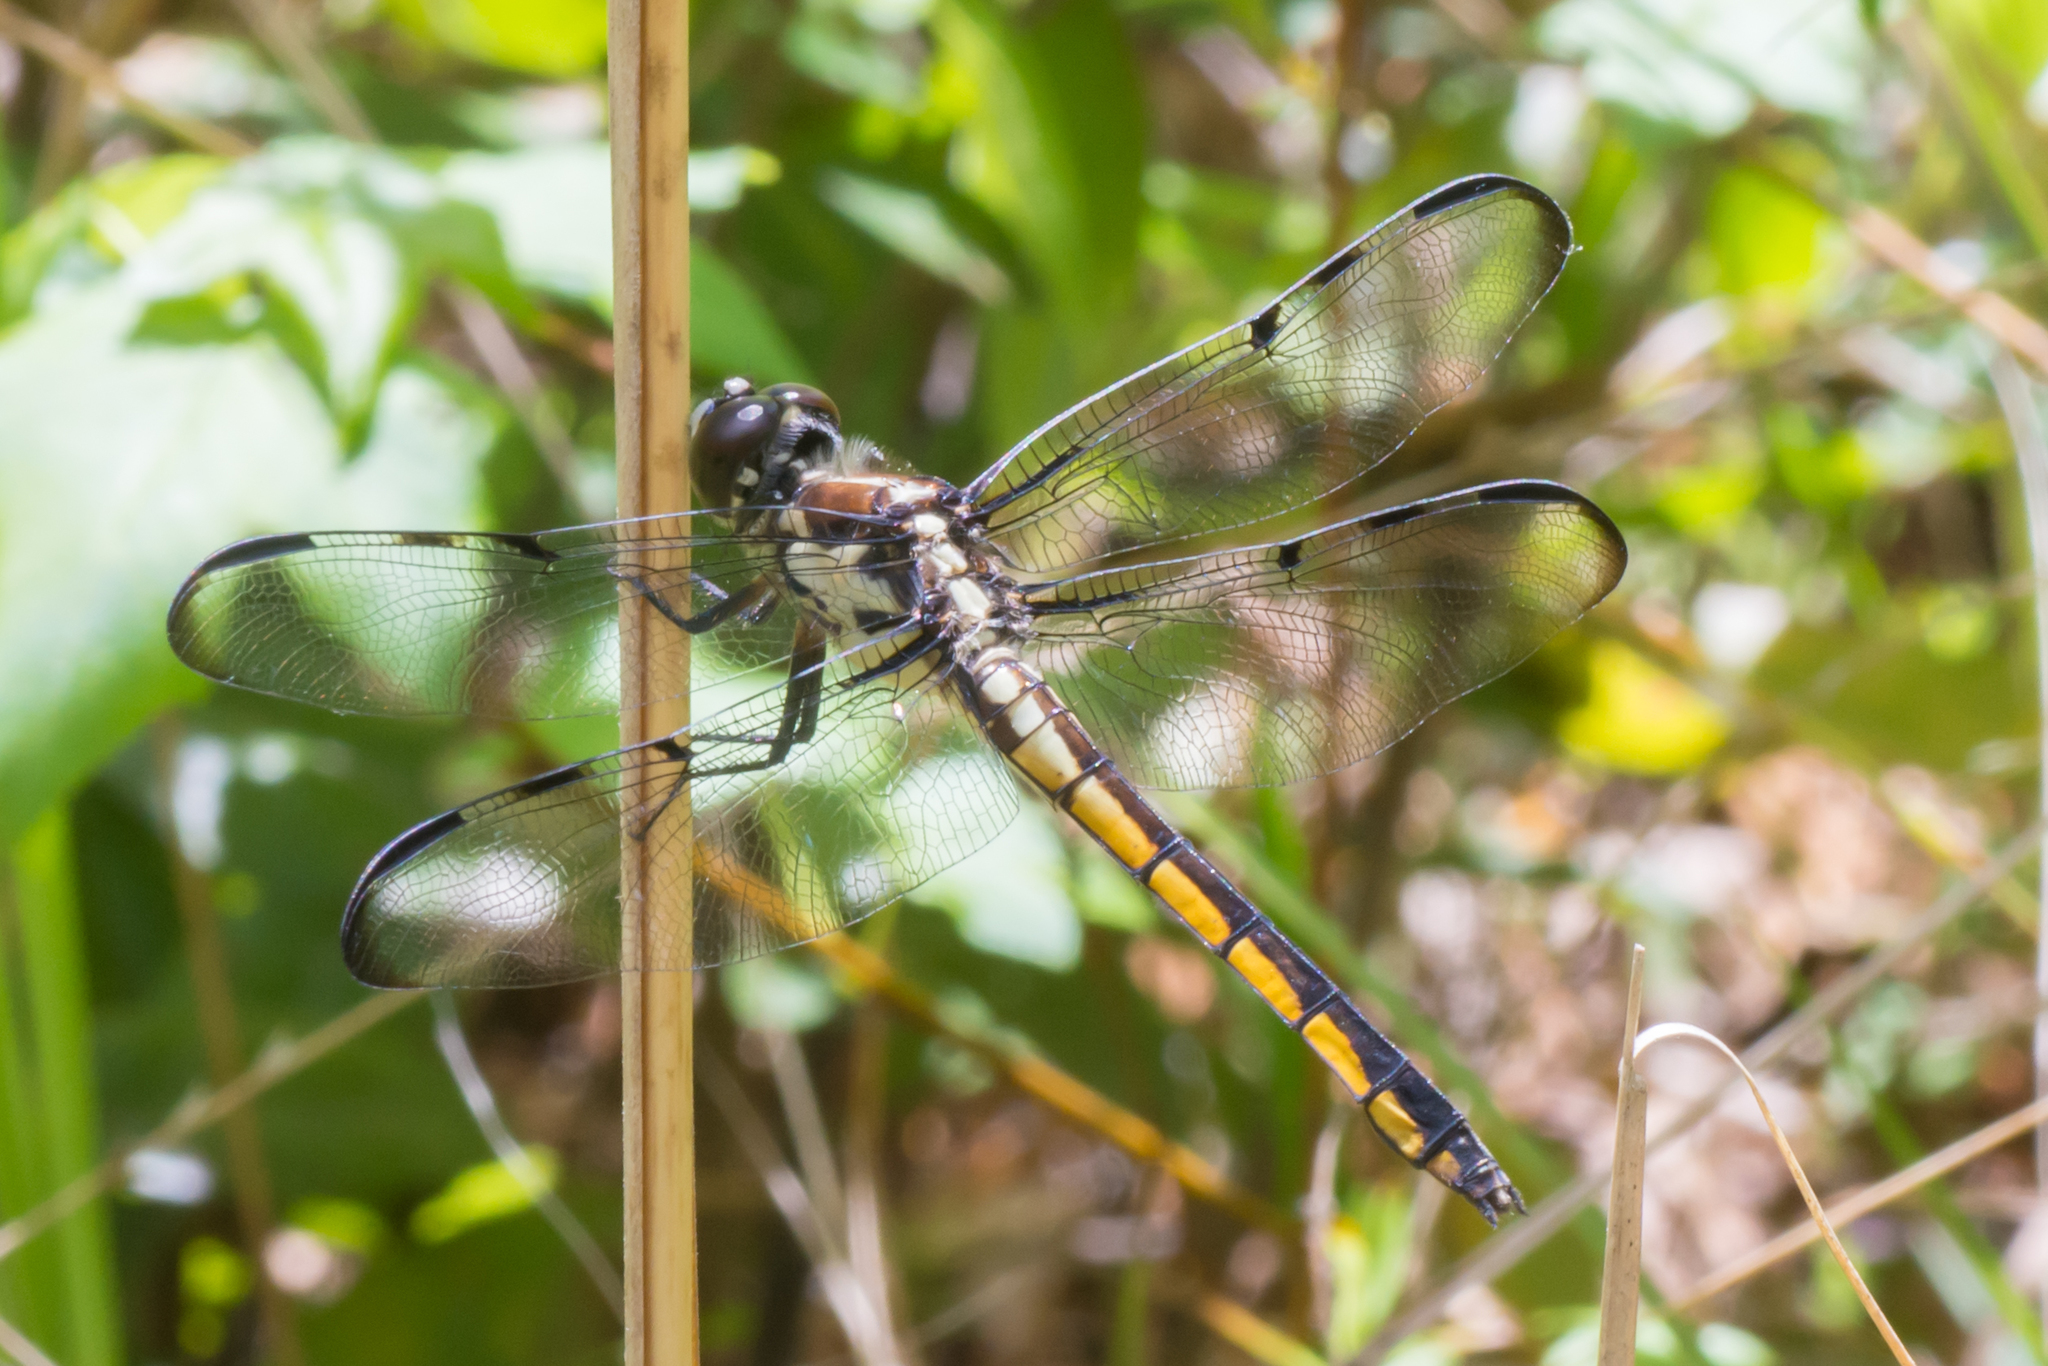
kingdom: Animalia
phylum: Arthropoda
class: Insecta
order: Odonata
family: Libellulidae
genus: Libellula
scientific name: Libellula vibrans
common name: Great blue skimmer
